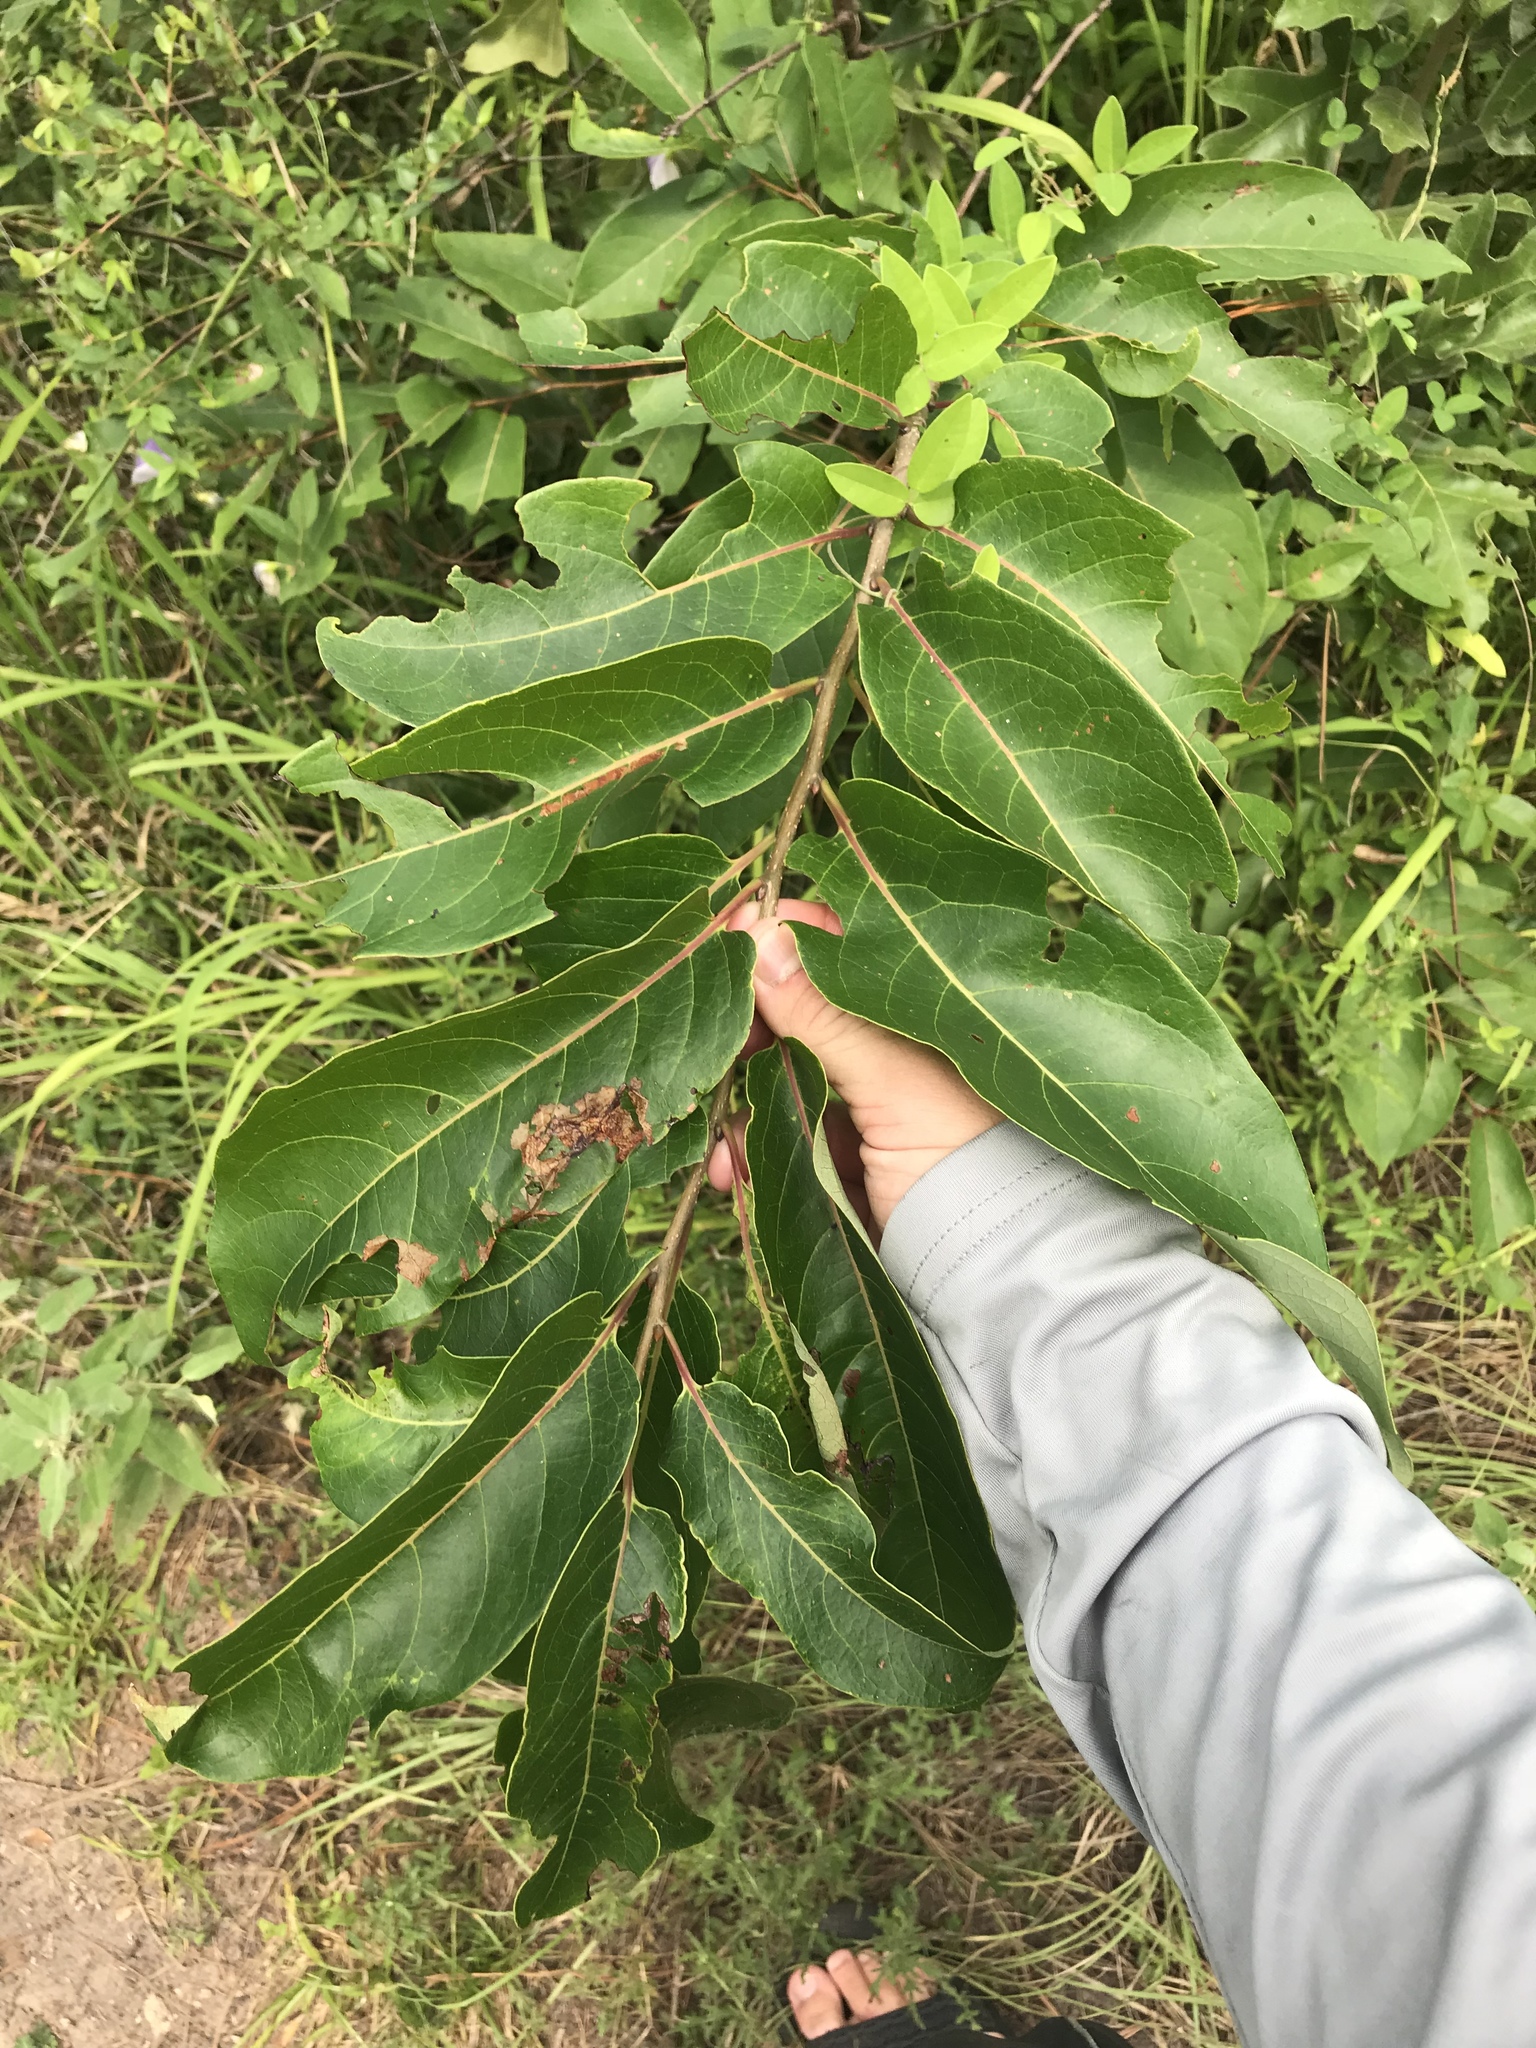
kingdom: Plantae
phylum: Tracheophyta
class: Magnoliopsida
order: Ericales
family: Ebenaceae
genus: Diospyros
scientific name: Diospyros virginiana
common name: Persimmon
